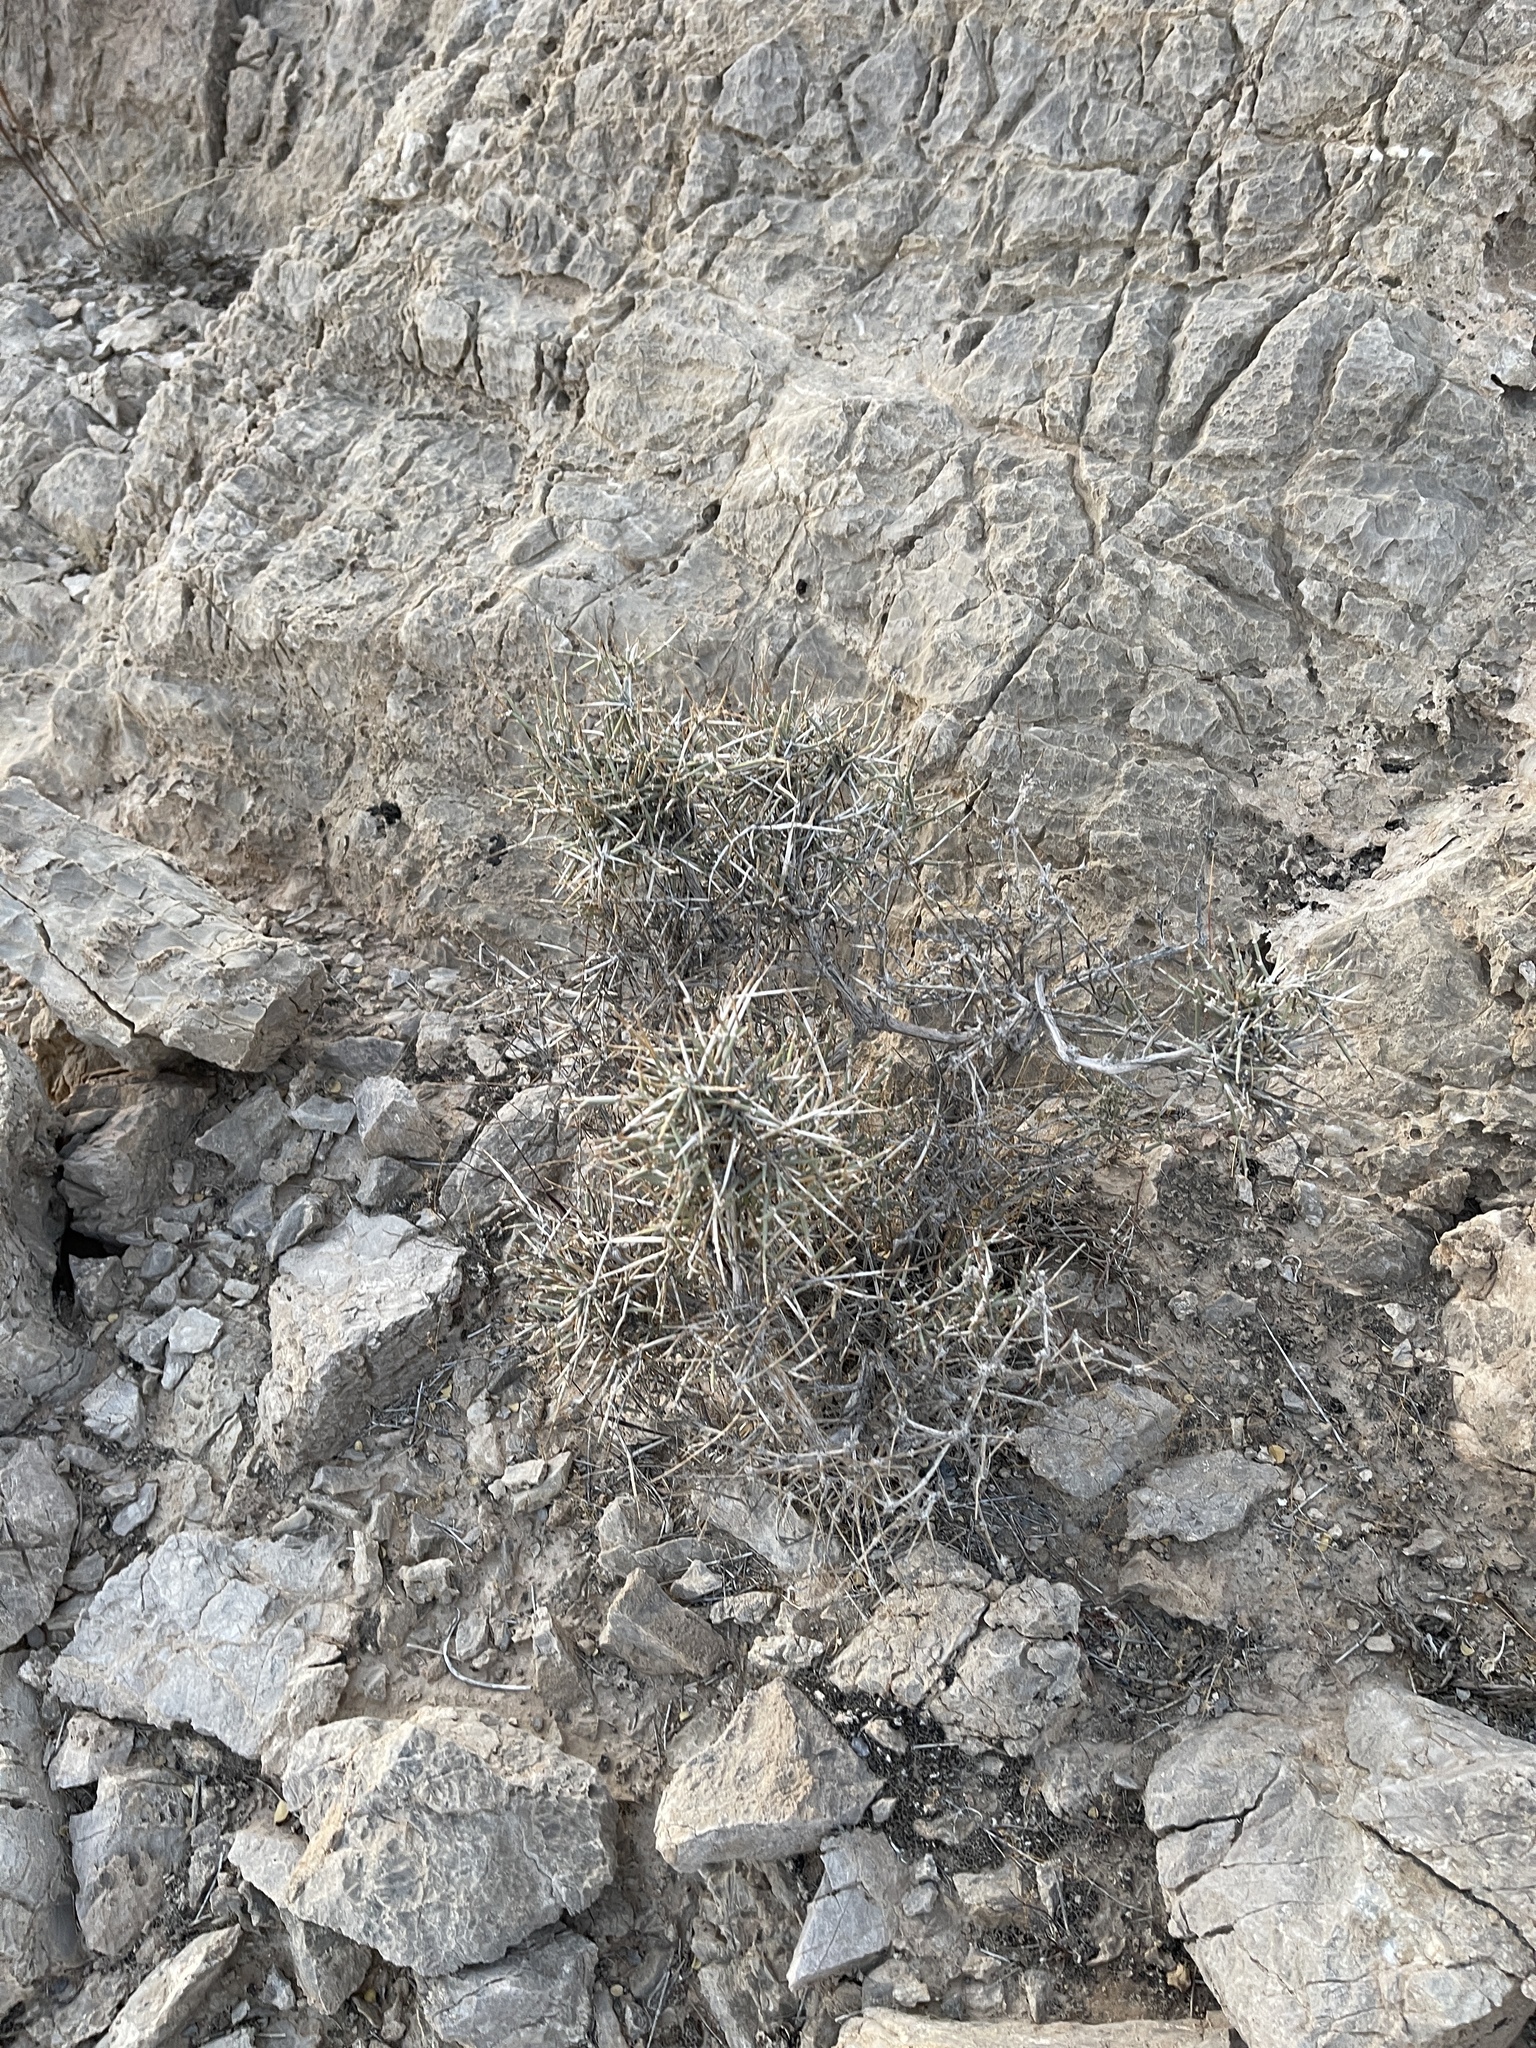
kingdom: Plantae
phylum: Tracheophyta
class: Gnetopsida
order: Ephedrales
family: Ephedraceae
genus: Ephedra
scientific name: Ephedra nevadensis
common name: Gray ephedra
